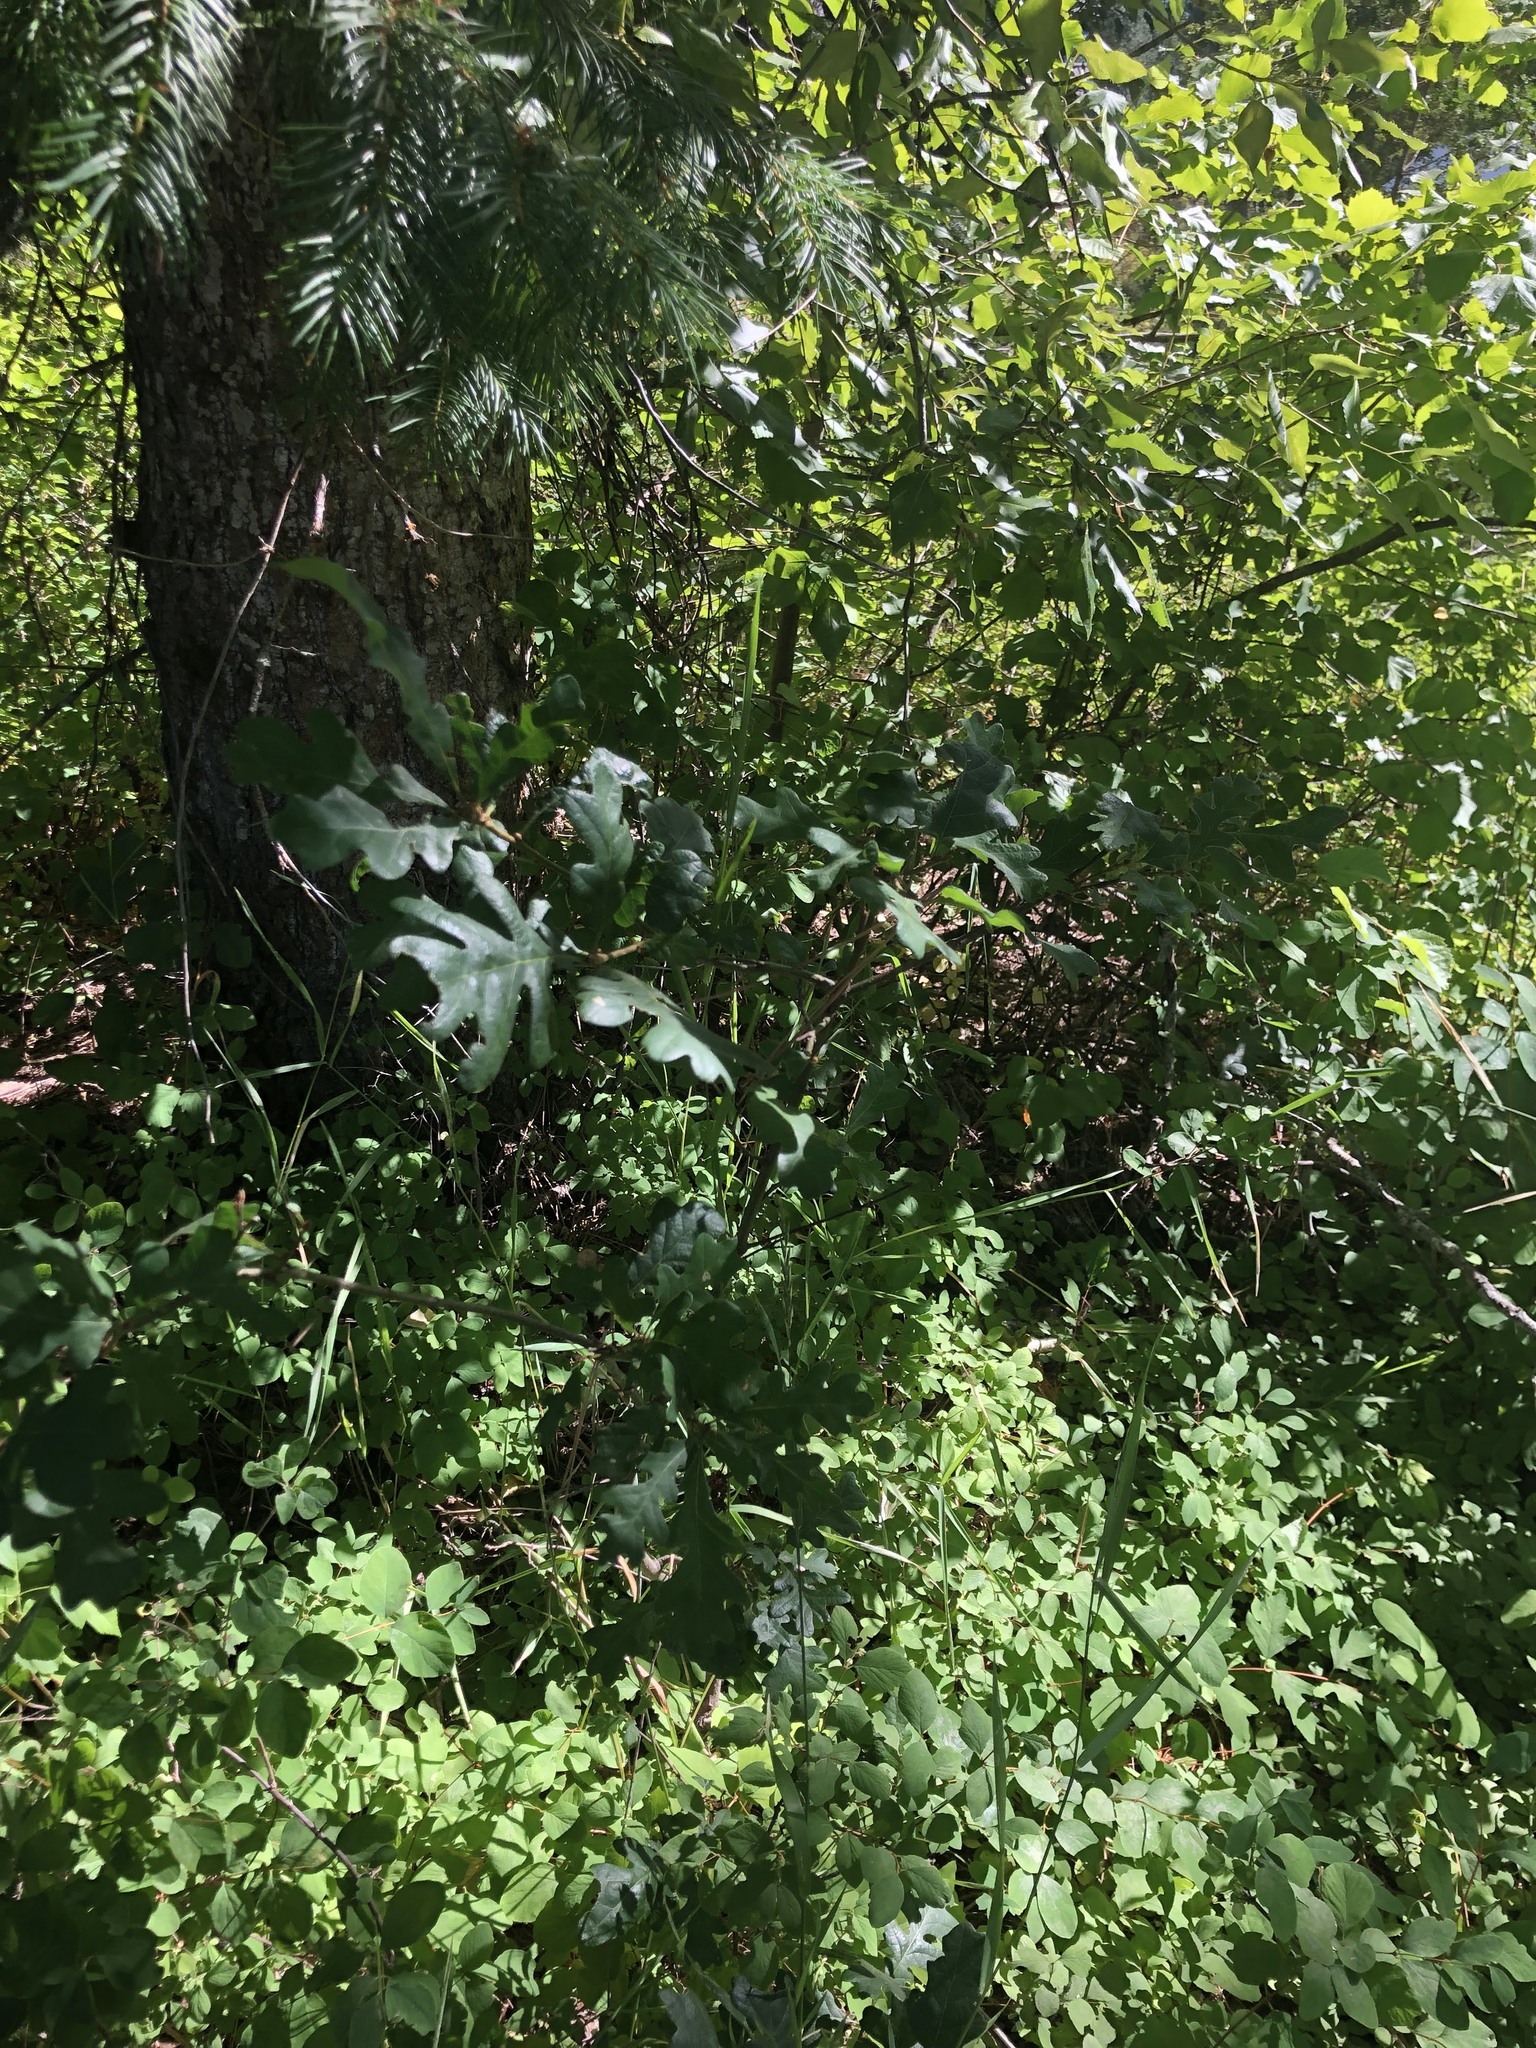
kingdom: Plantae
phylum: Tracheophyta
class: Magnoliopsida
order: Fagales
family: Fagaceae
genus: Quercus
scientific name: Quercus garryana
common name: Garry oak
